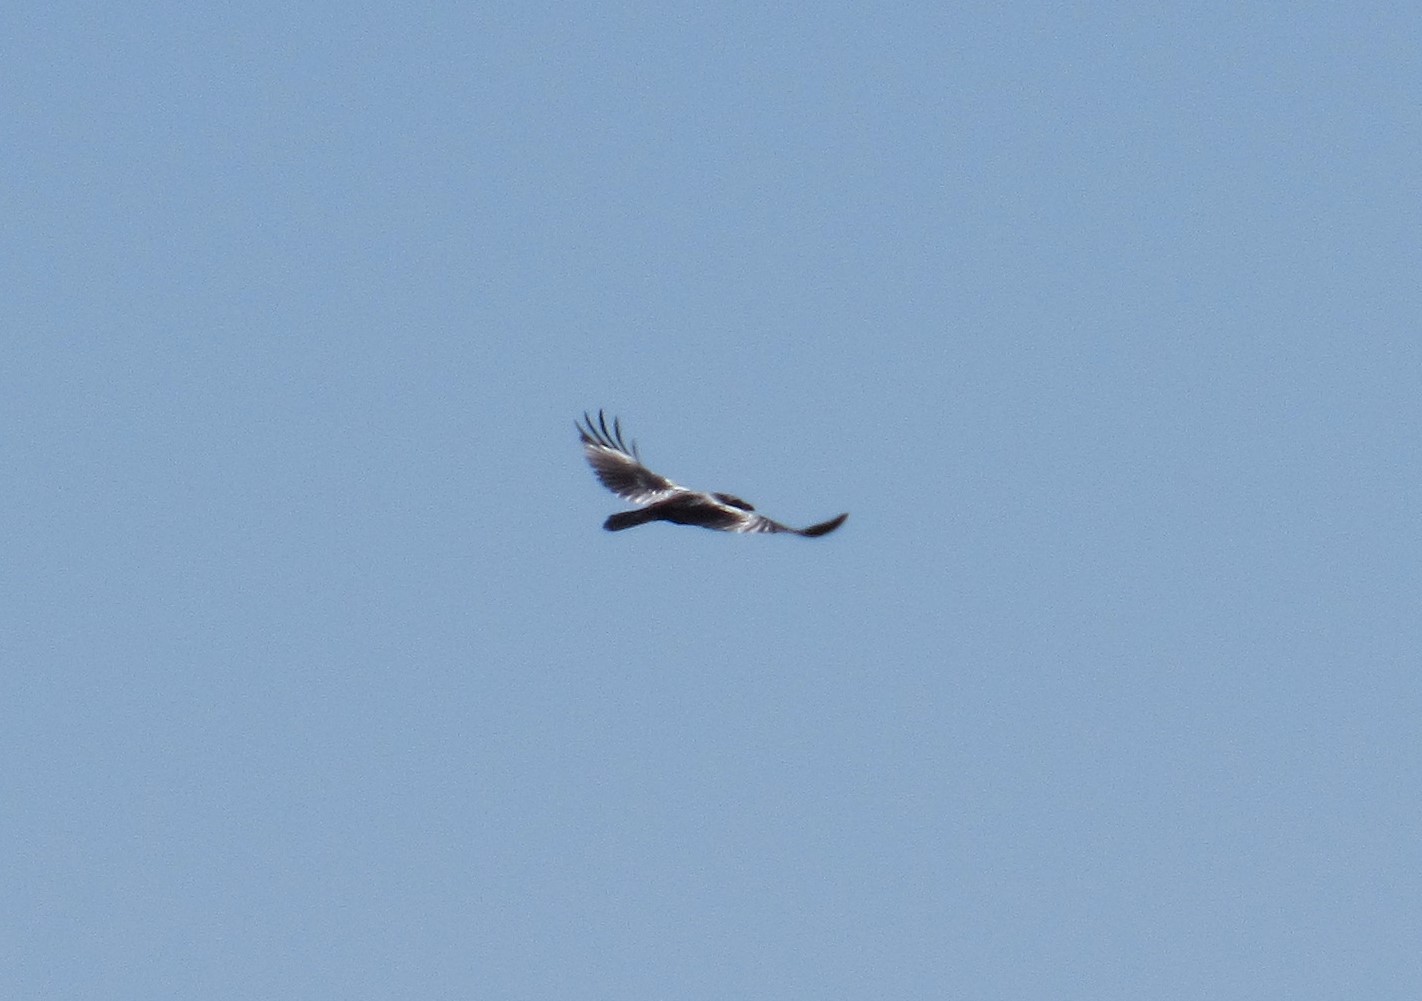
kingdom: Animalia
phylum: Chordata
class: Aves
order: Passeriformes
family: Corvidae
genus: Corvus
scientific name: Corvus corax
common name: Common raven
